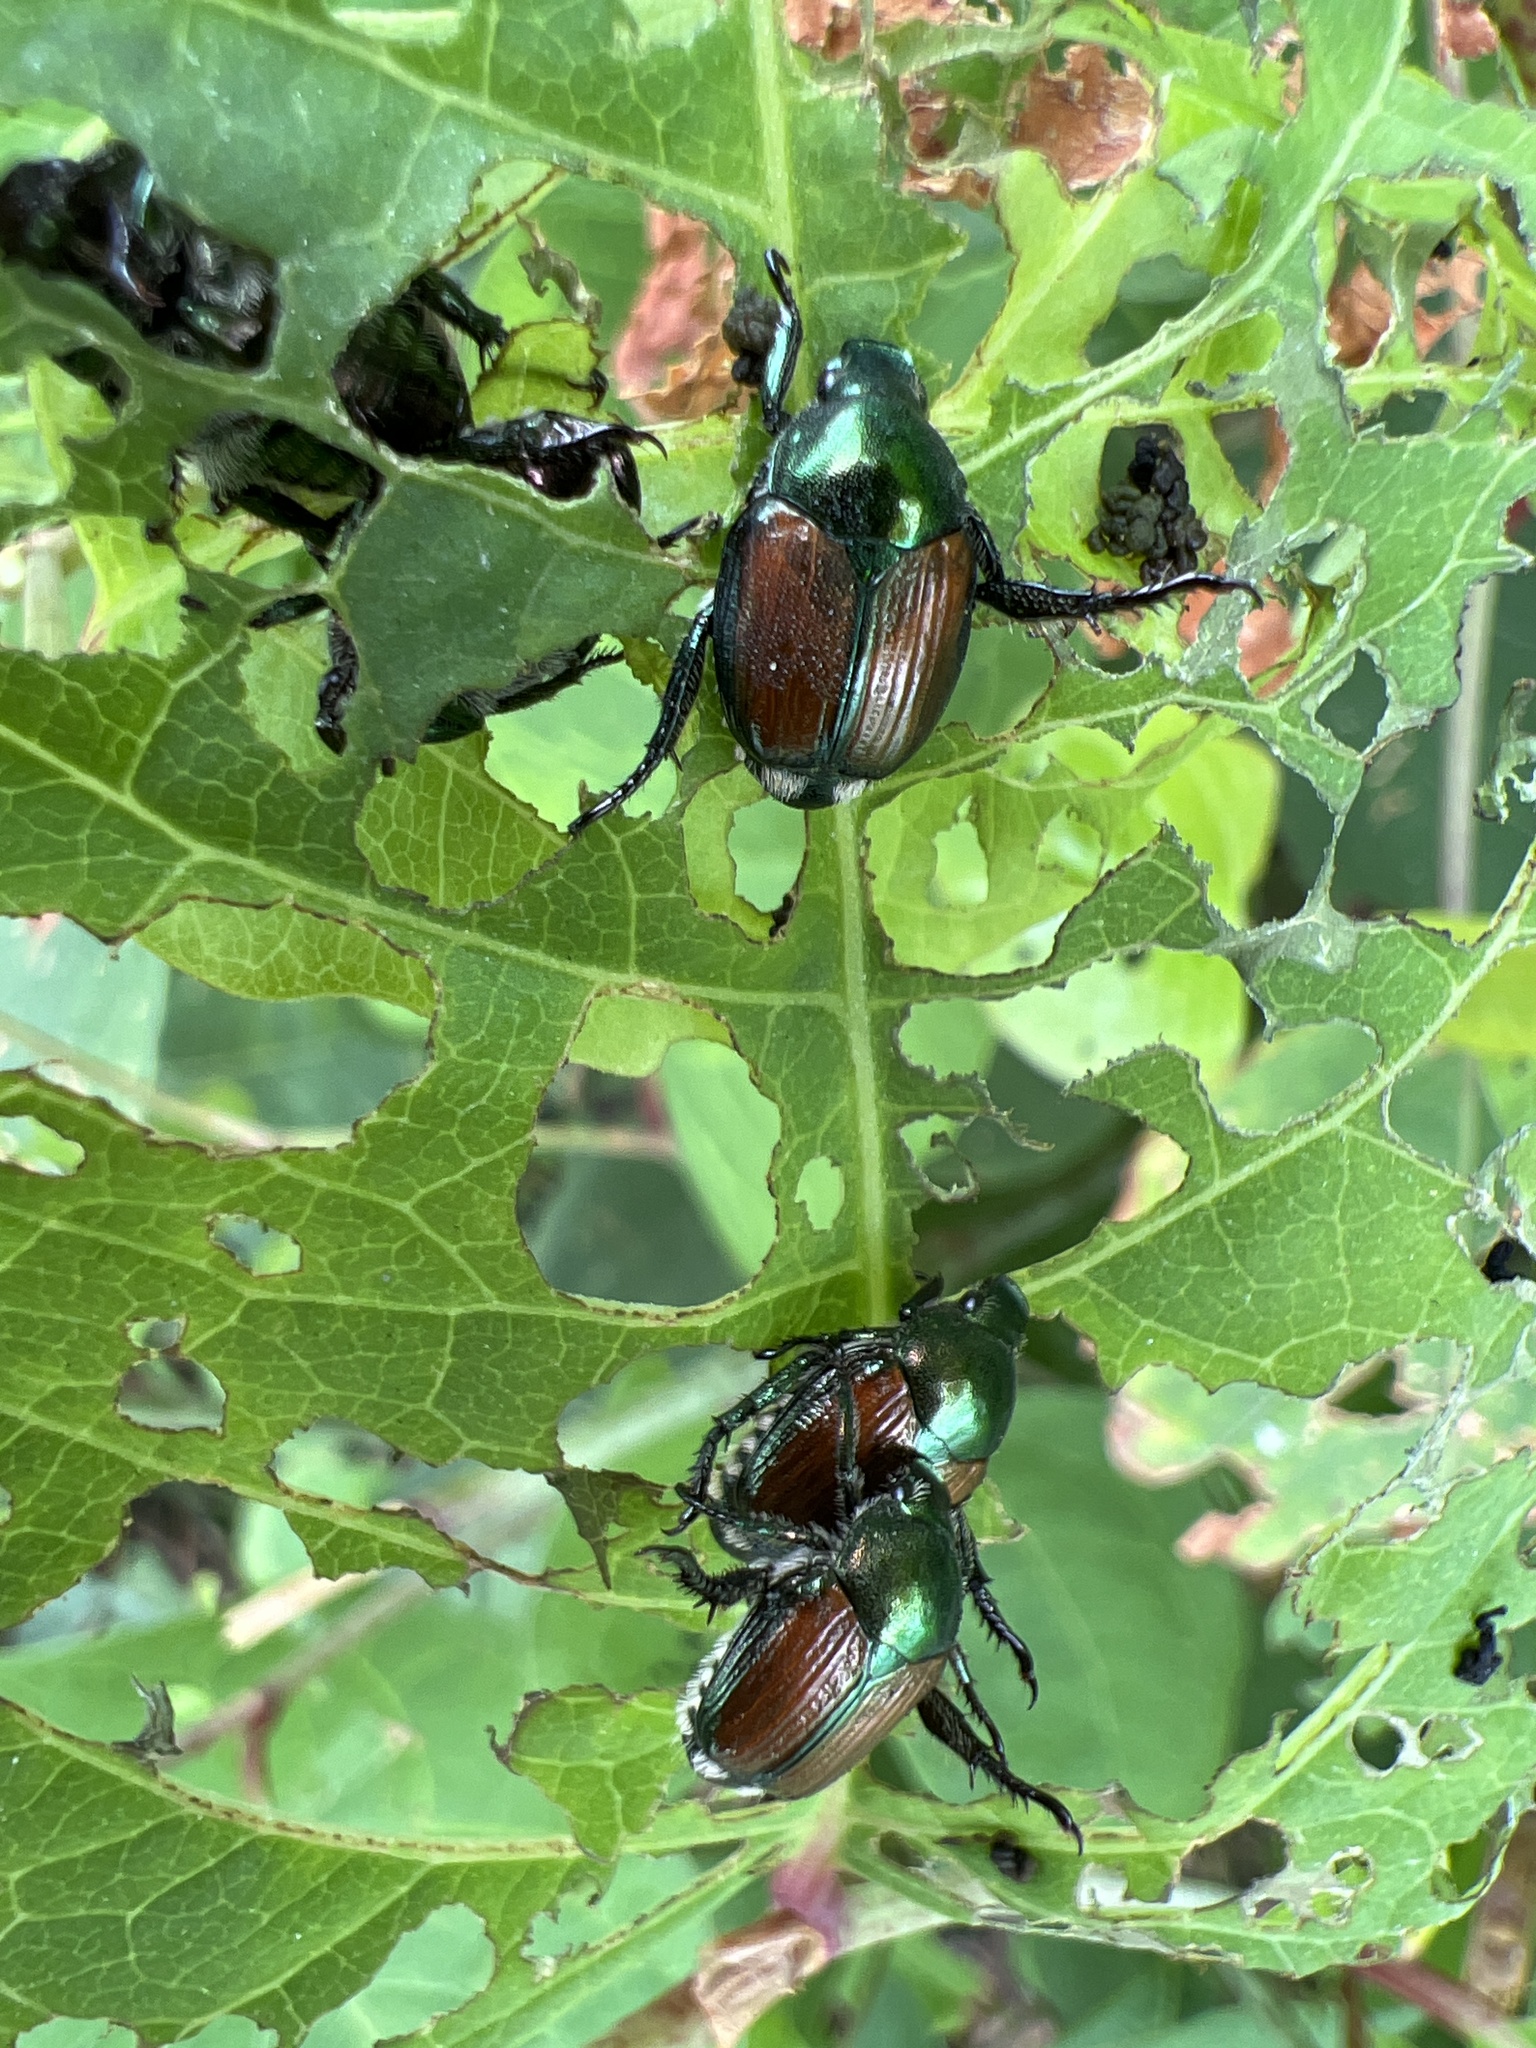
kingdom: Animalia
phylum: Arthropoda
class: Insecta
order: Coleoptera
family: Scarabaeidae
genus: Popillia
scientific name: Popillia japonica
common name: Japanese beetle
